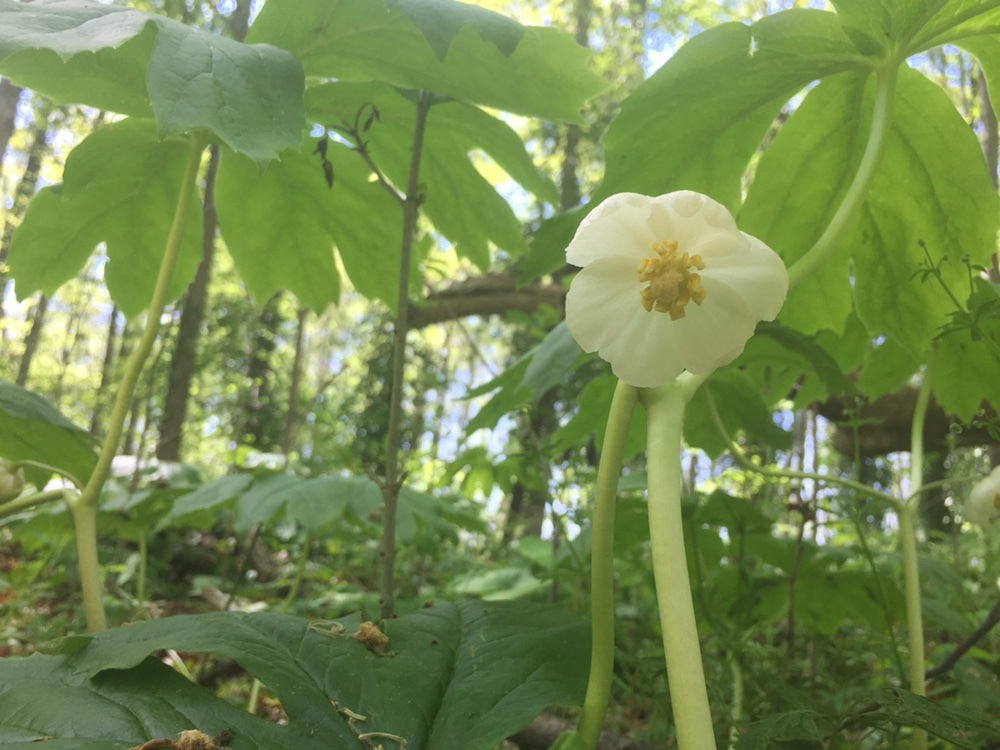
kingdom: Plantae
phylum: Tracheophyta
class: Magnoliopsida
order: Ranunculales
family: Berberidaceae
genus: Podophyllum
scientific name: Podophyllum peltatum
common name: Wild mandrake
